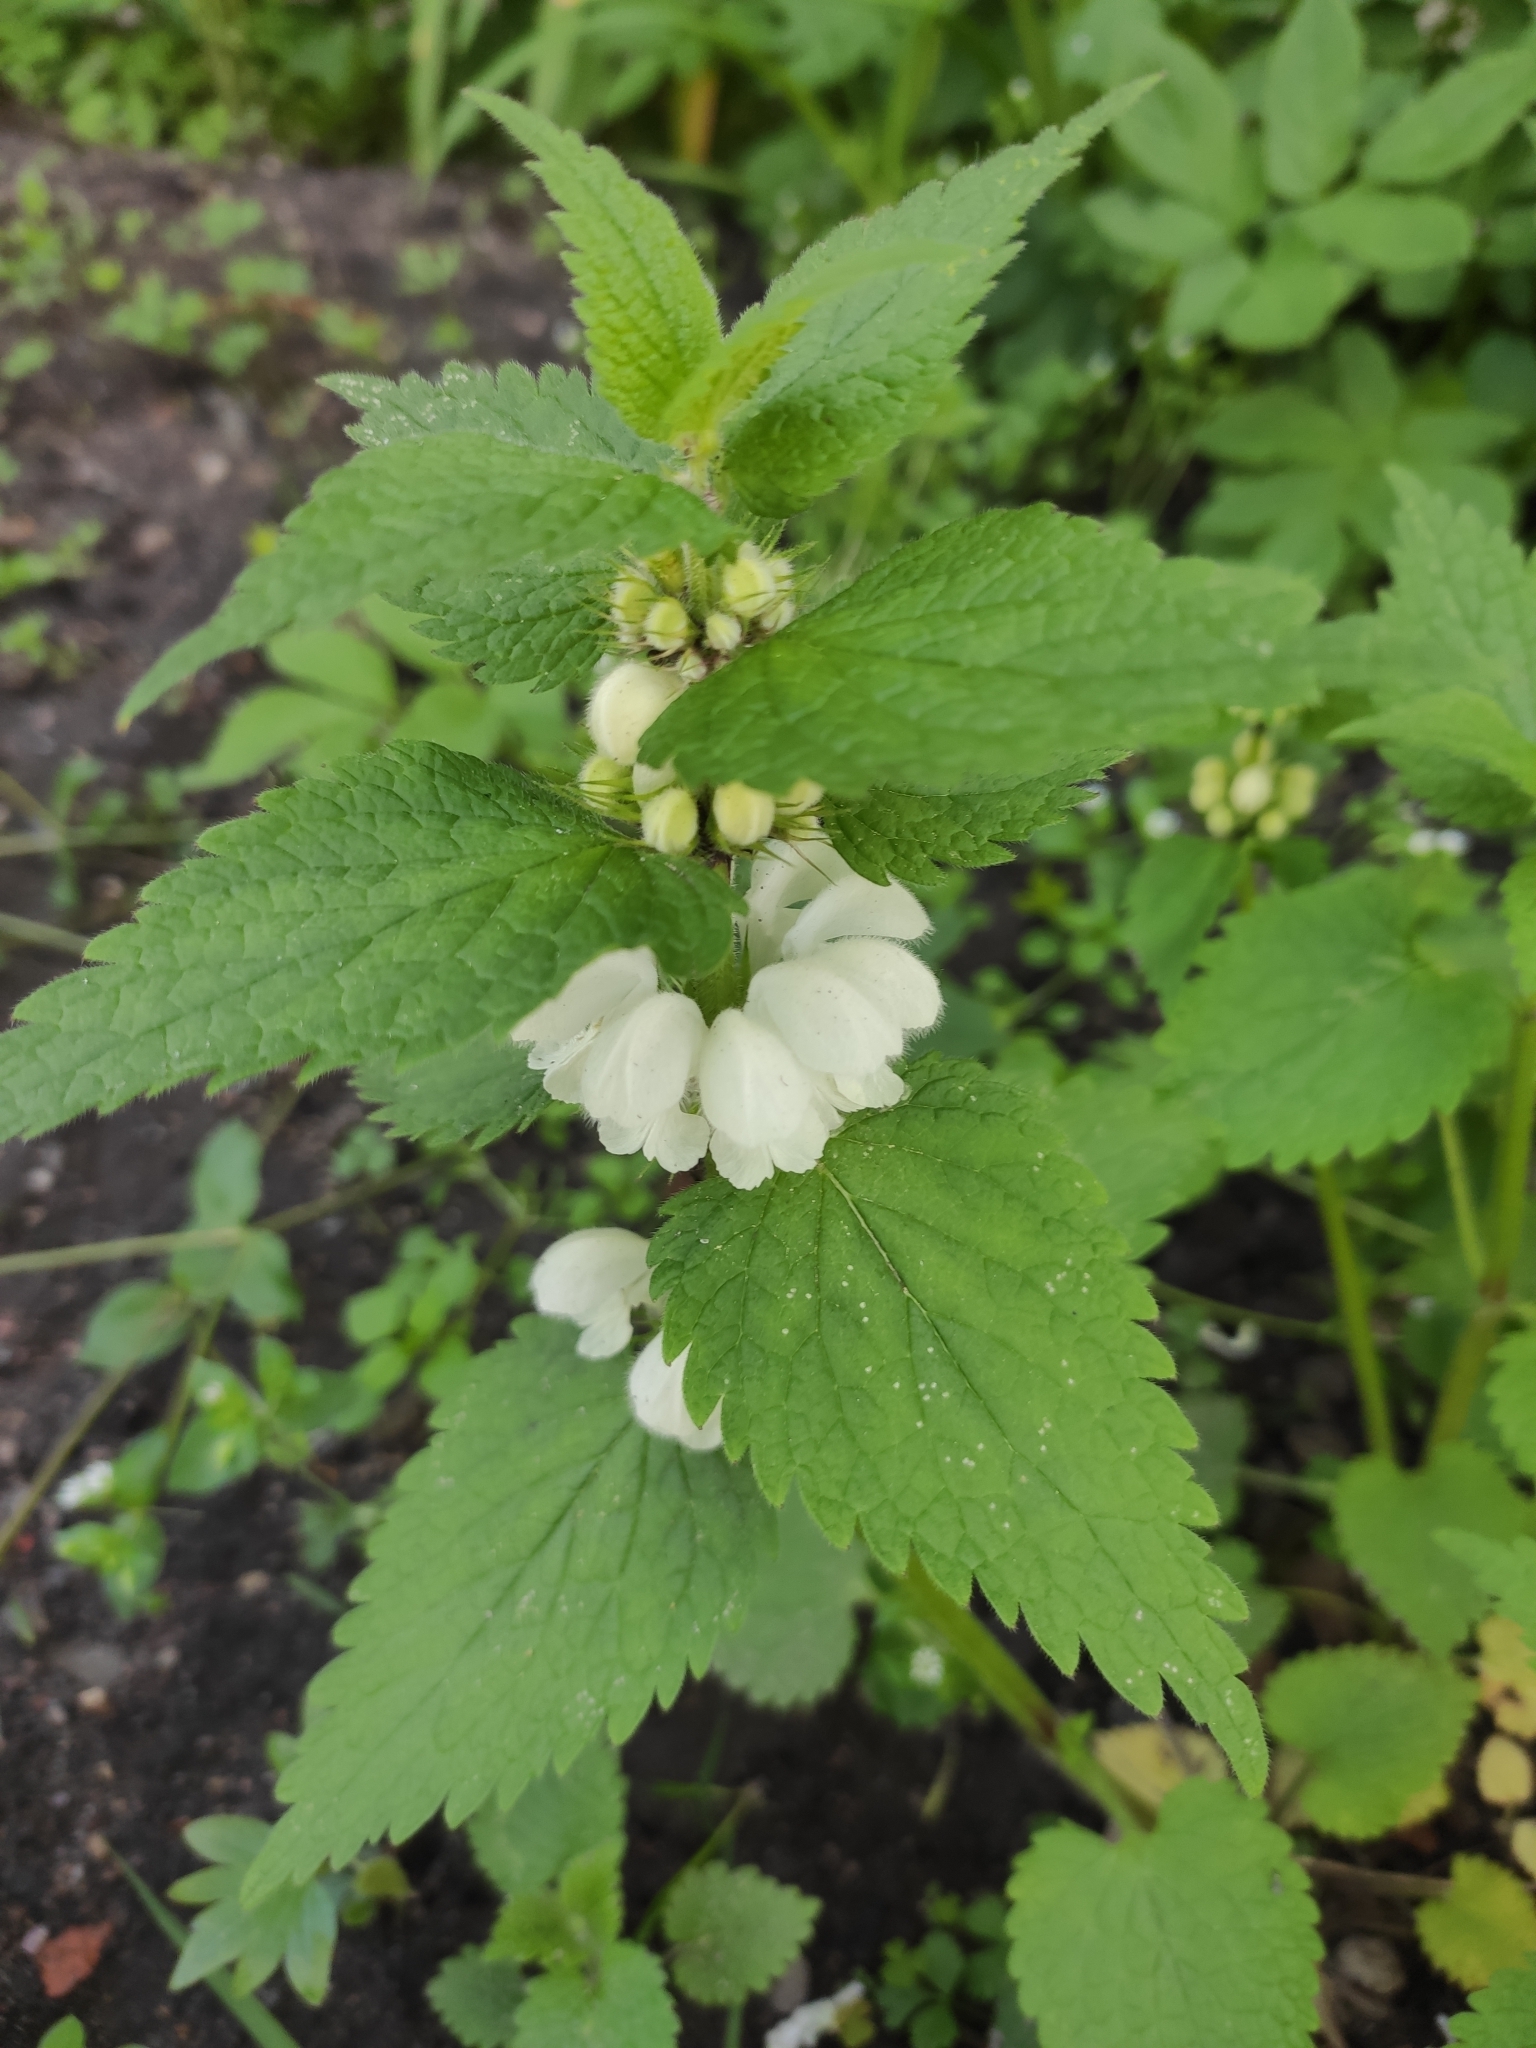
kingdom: Plantae
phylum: Tracheophyta
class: Magnoliopsida
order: Lamiales
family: Lamiaceae
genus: Lamium
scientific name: Lamium album
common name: White dead-nettle
